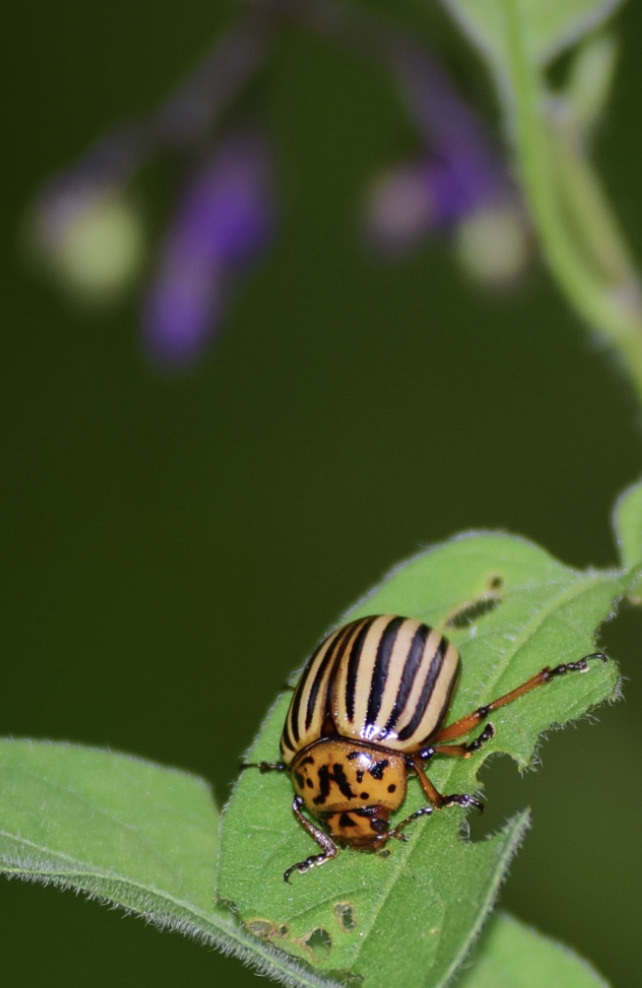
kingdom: Animalia
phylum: Arthropoda
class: Insecta
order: Coleoptera
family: Chrysomelidae
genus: Leptinotarsa
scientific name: Leptinotarsa decemlineata
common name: Colorado potato beetle
